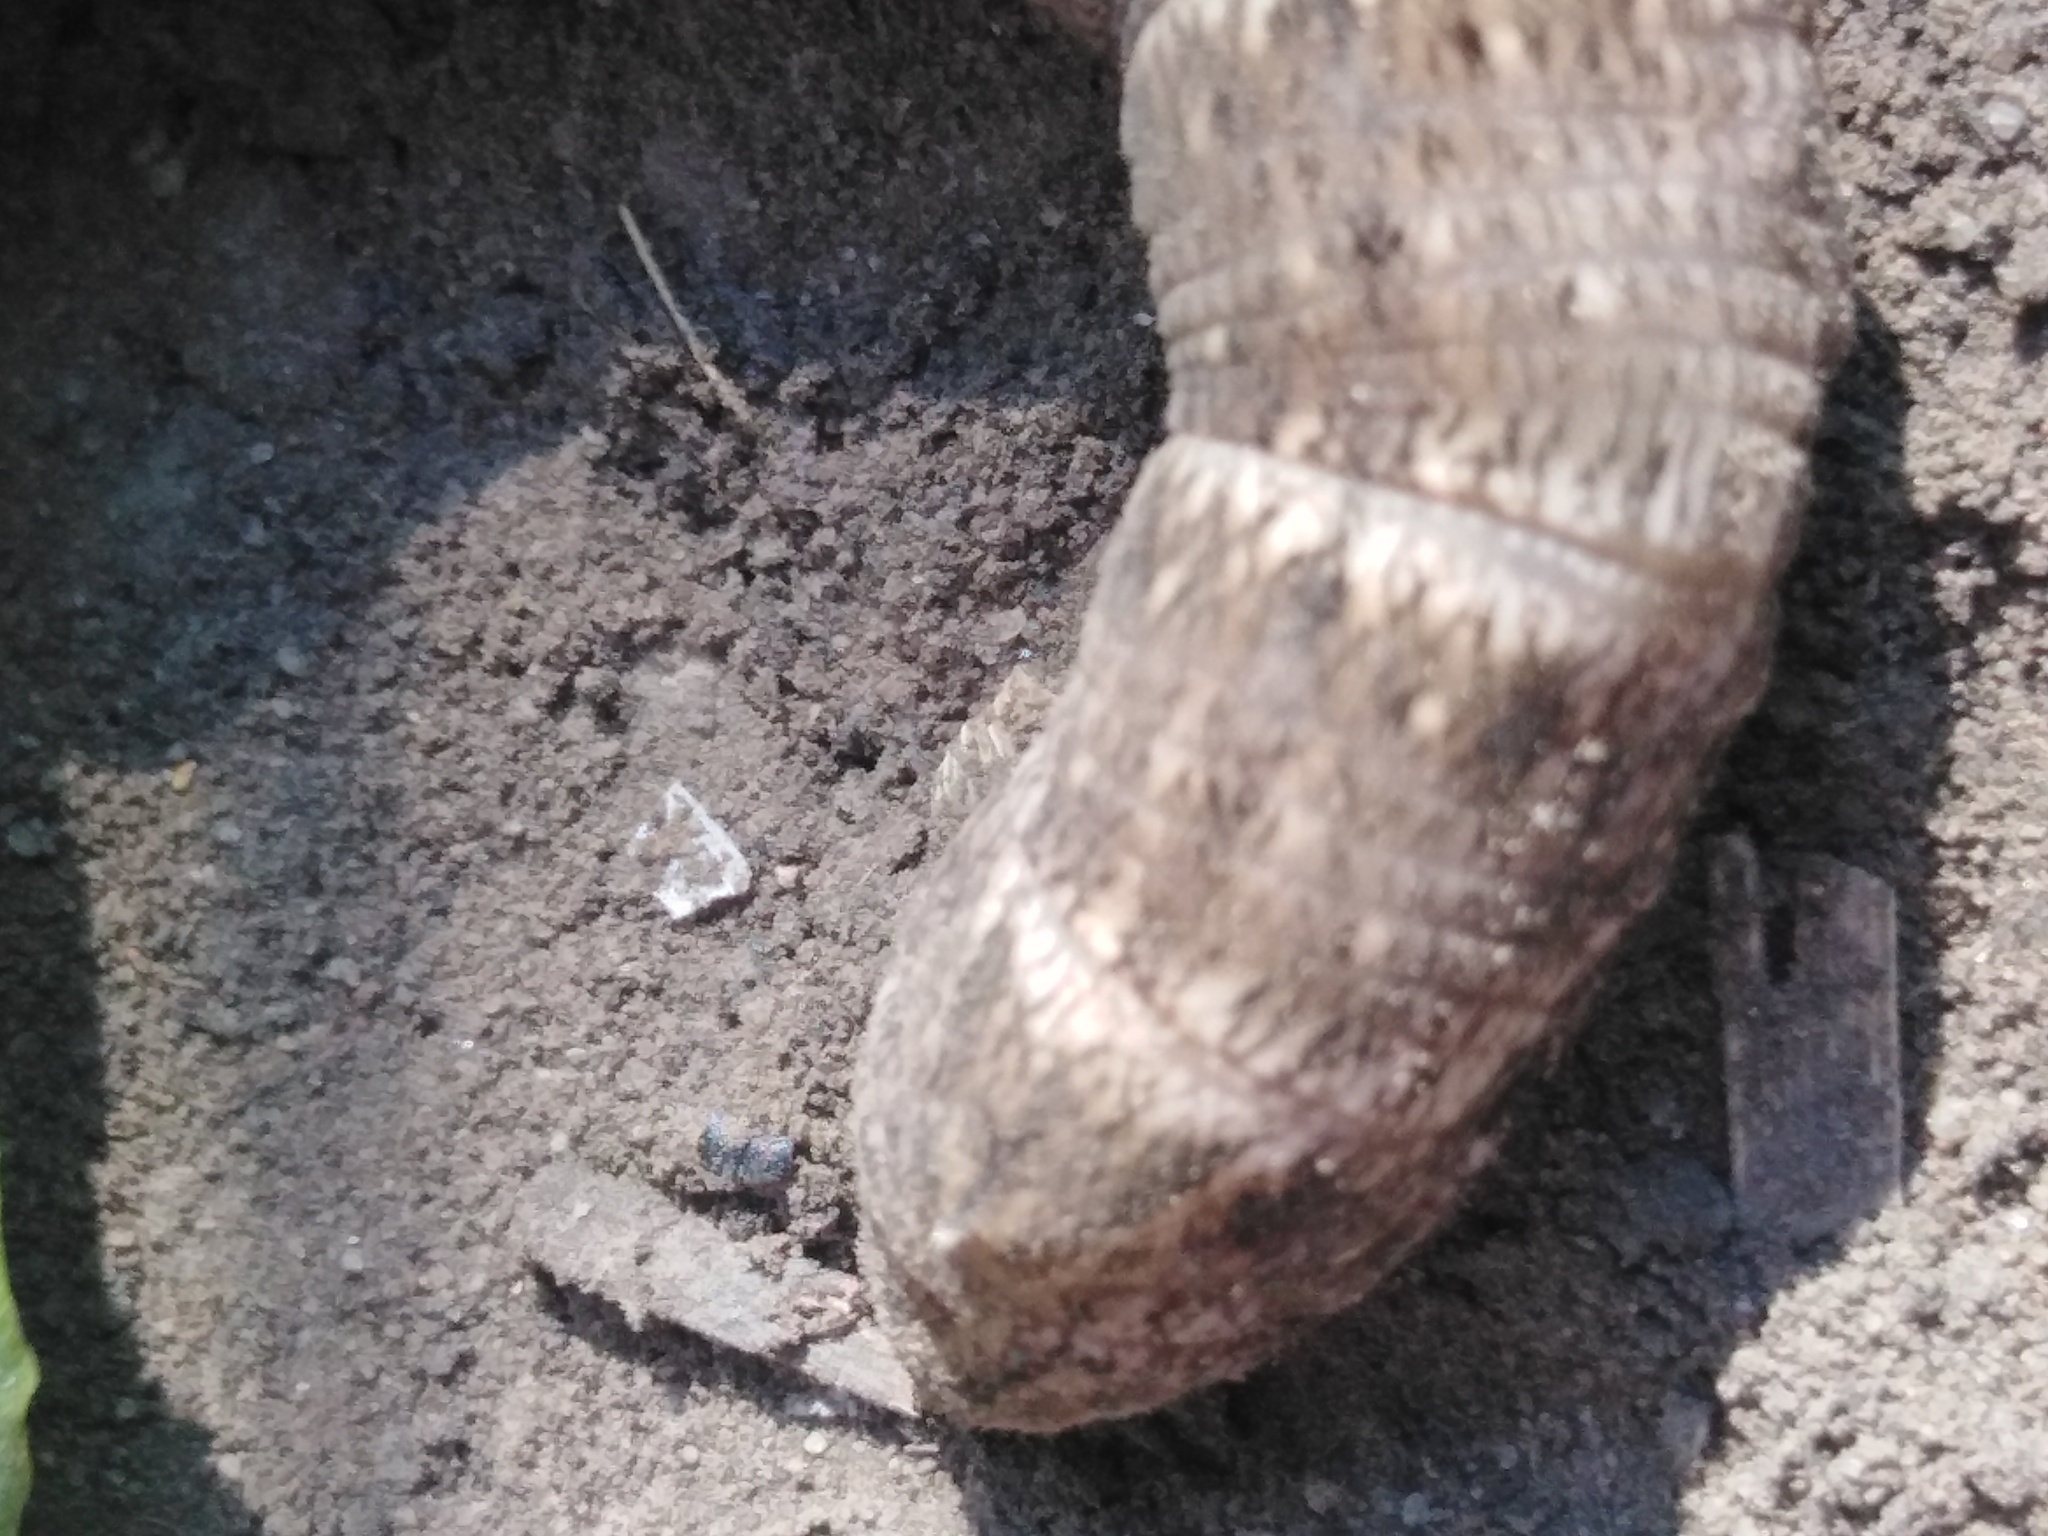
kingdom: Animalia
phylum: Arthropoda
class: Insecta
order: Lepidoptera
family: Sphingidae
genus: Deilephila
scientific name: Deilephila porcellus
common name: Small elephant hawk-moth
